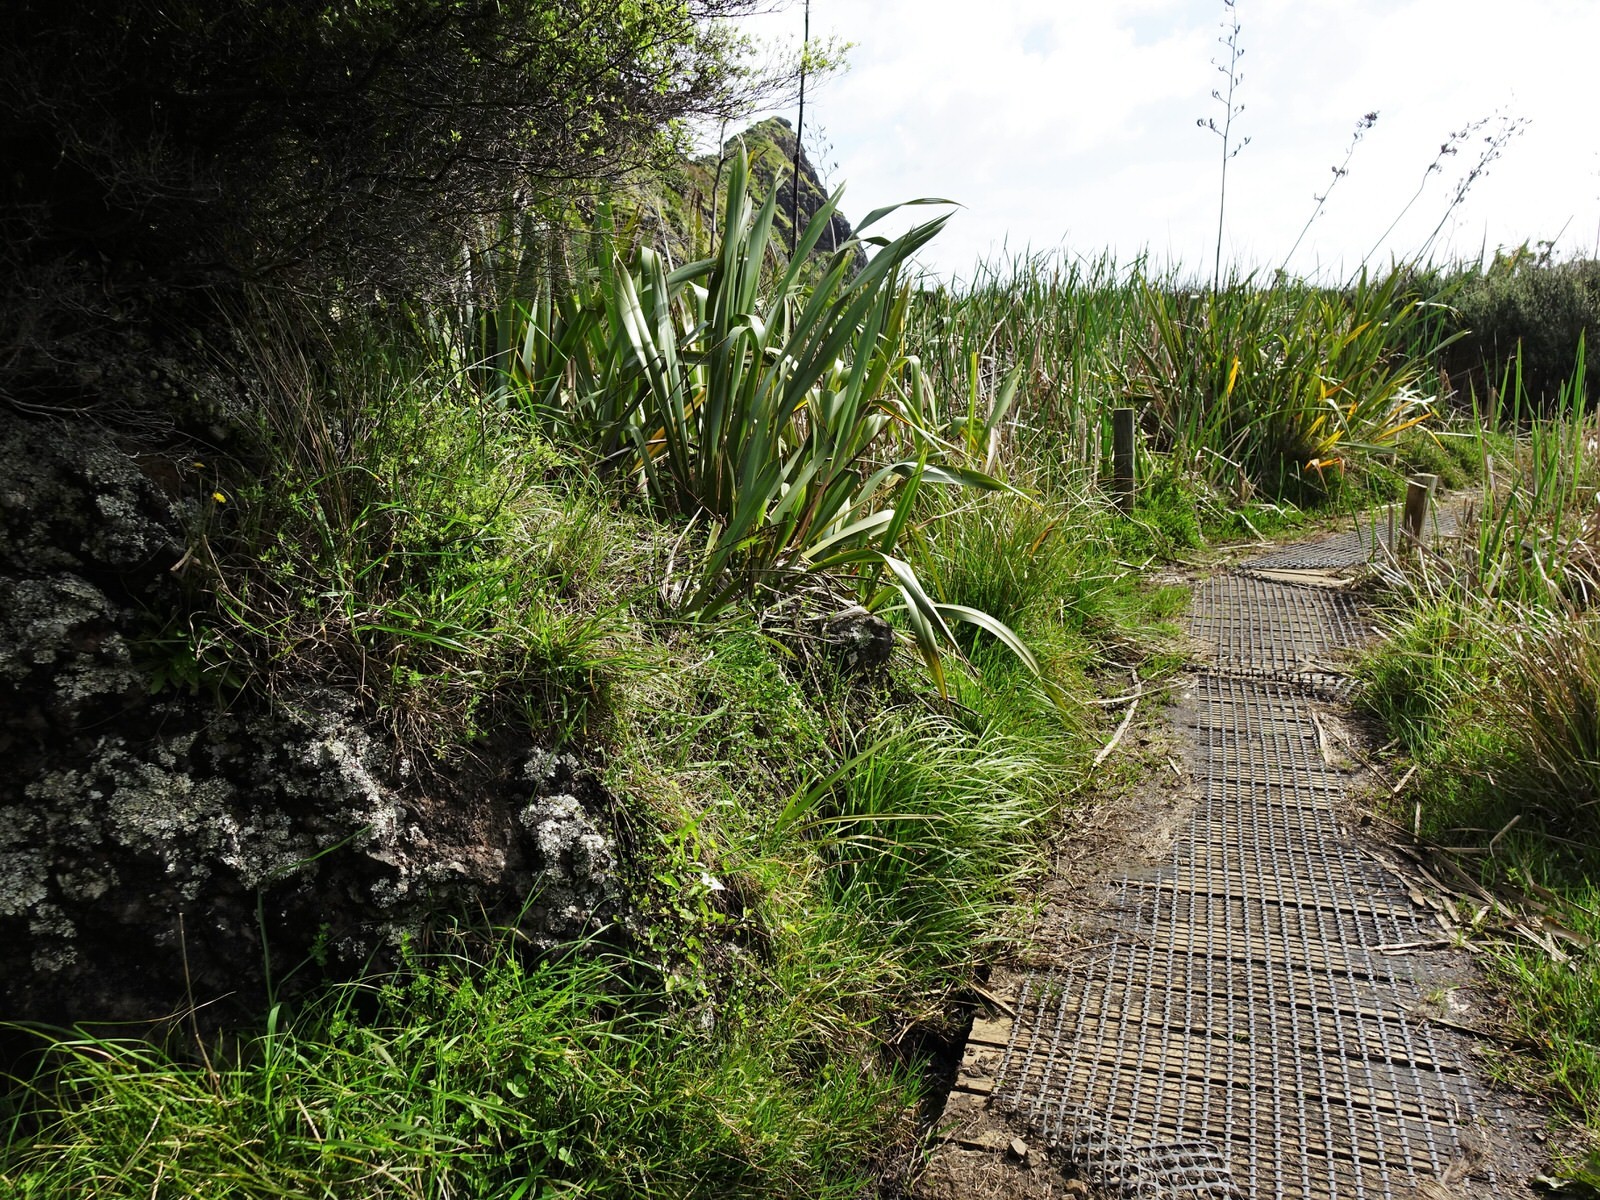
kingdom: Plantae
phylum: Tracheophyta
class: Liliopsida
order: Asparagales
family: Orchidaceae
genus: Thelymitra
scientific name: Thelymitra longifolia
